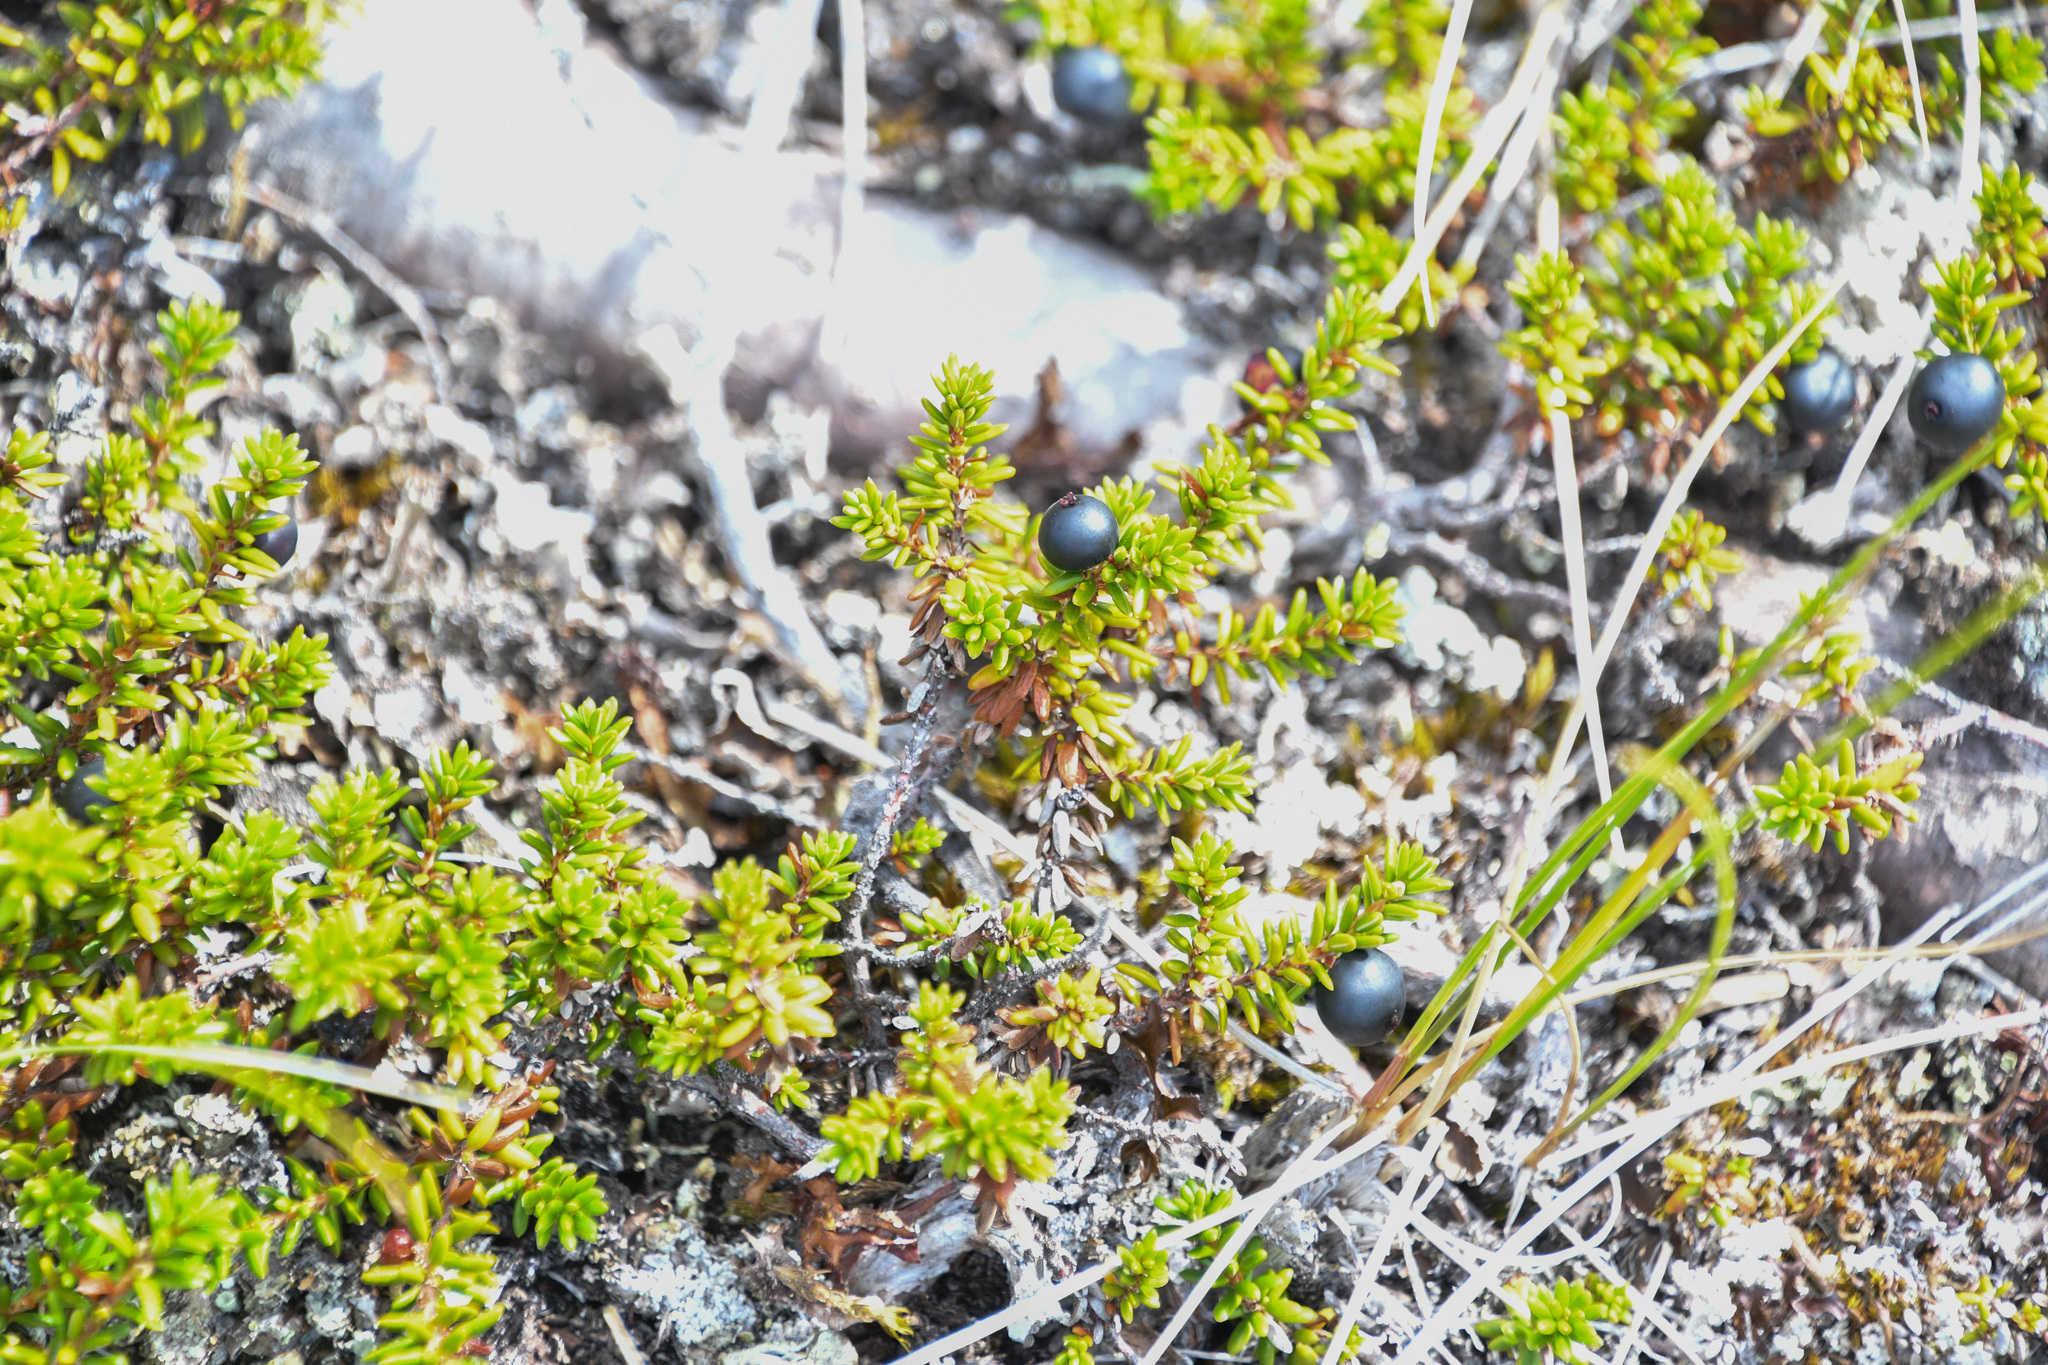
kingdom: Plantae
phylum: Tracheophyta
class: Magnoliopsida
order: Ericales
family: Ericaceae
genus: Empetrum
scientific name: Empetrum nigrum
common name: Black crowberry
